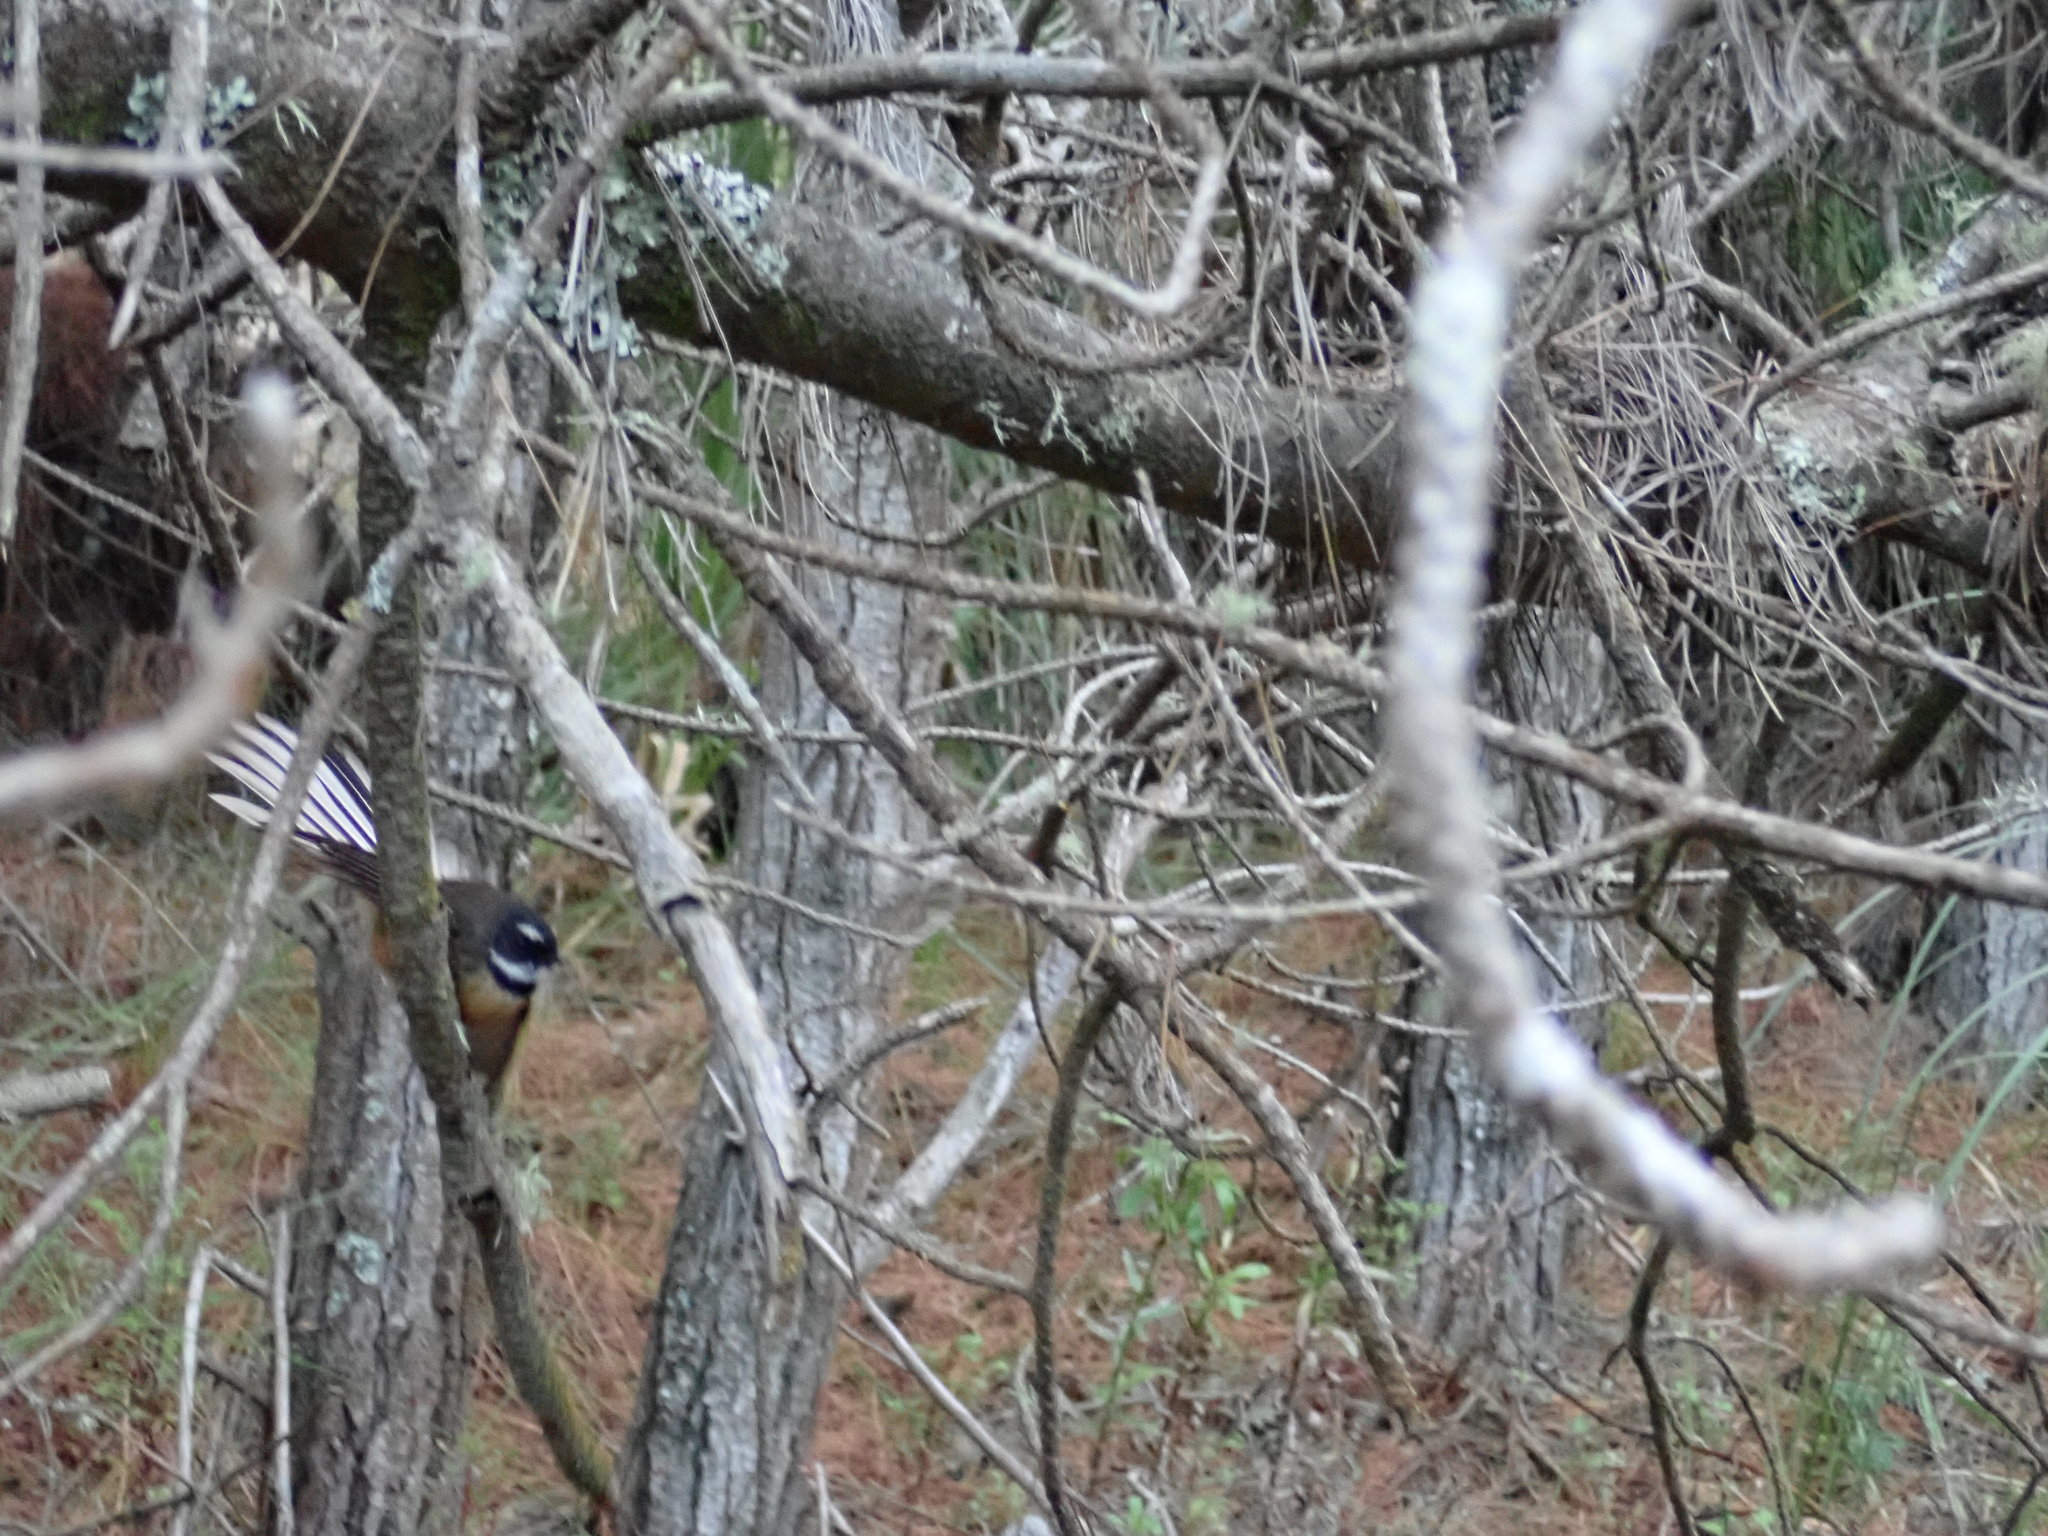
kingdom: Animalia
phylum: Chordata
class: Aves
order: Passeriformes
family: Rhipiduridae
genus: Rhipidura
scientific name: Rhipidura fuliginosa
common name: New zealand fantail
